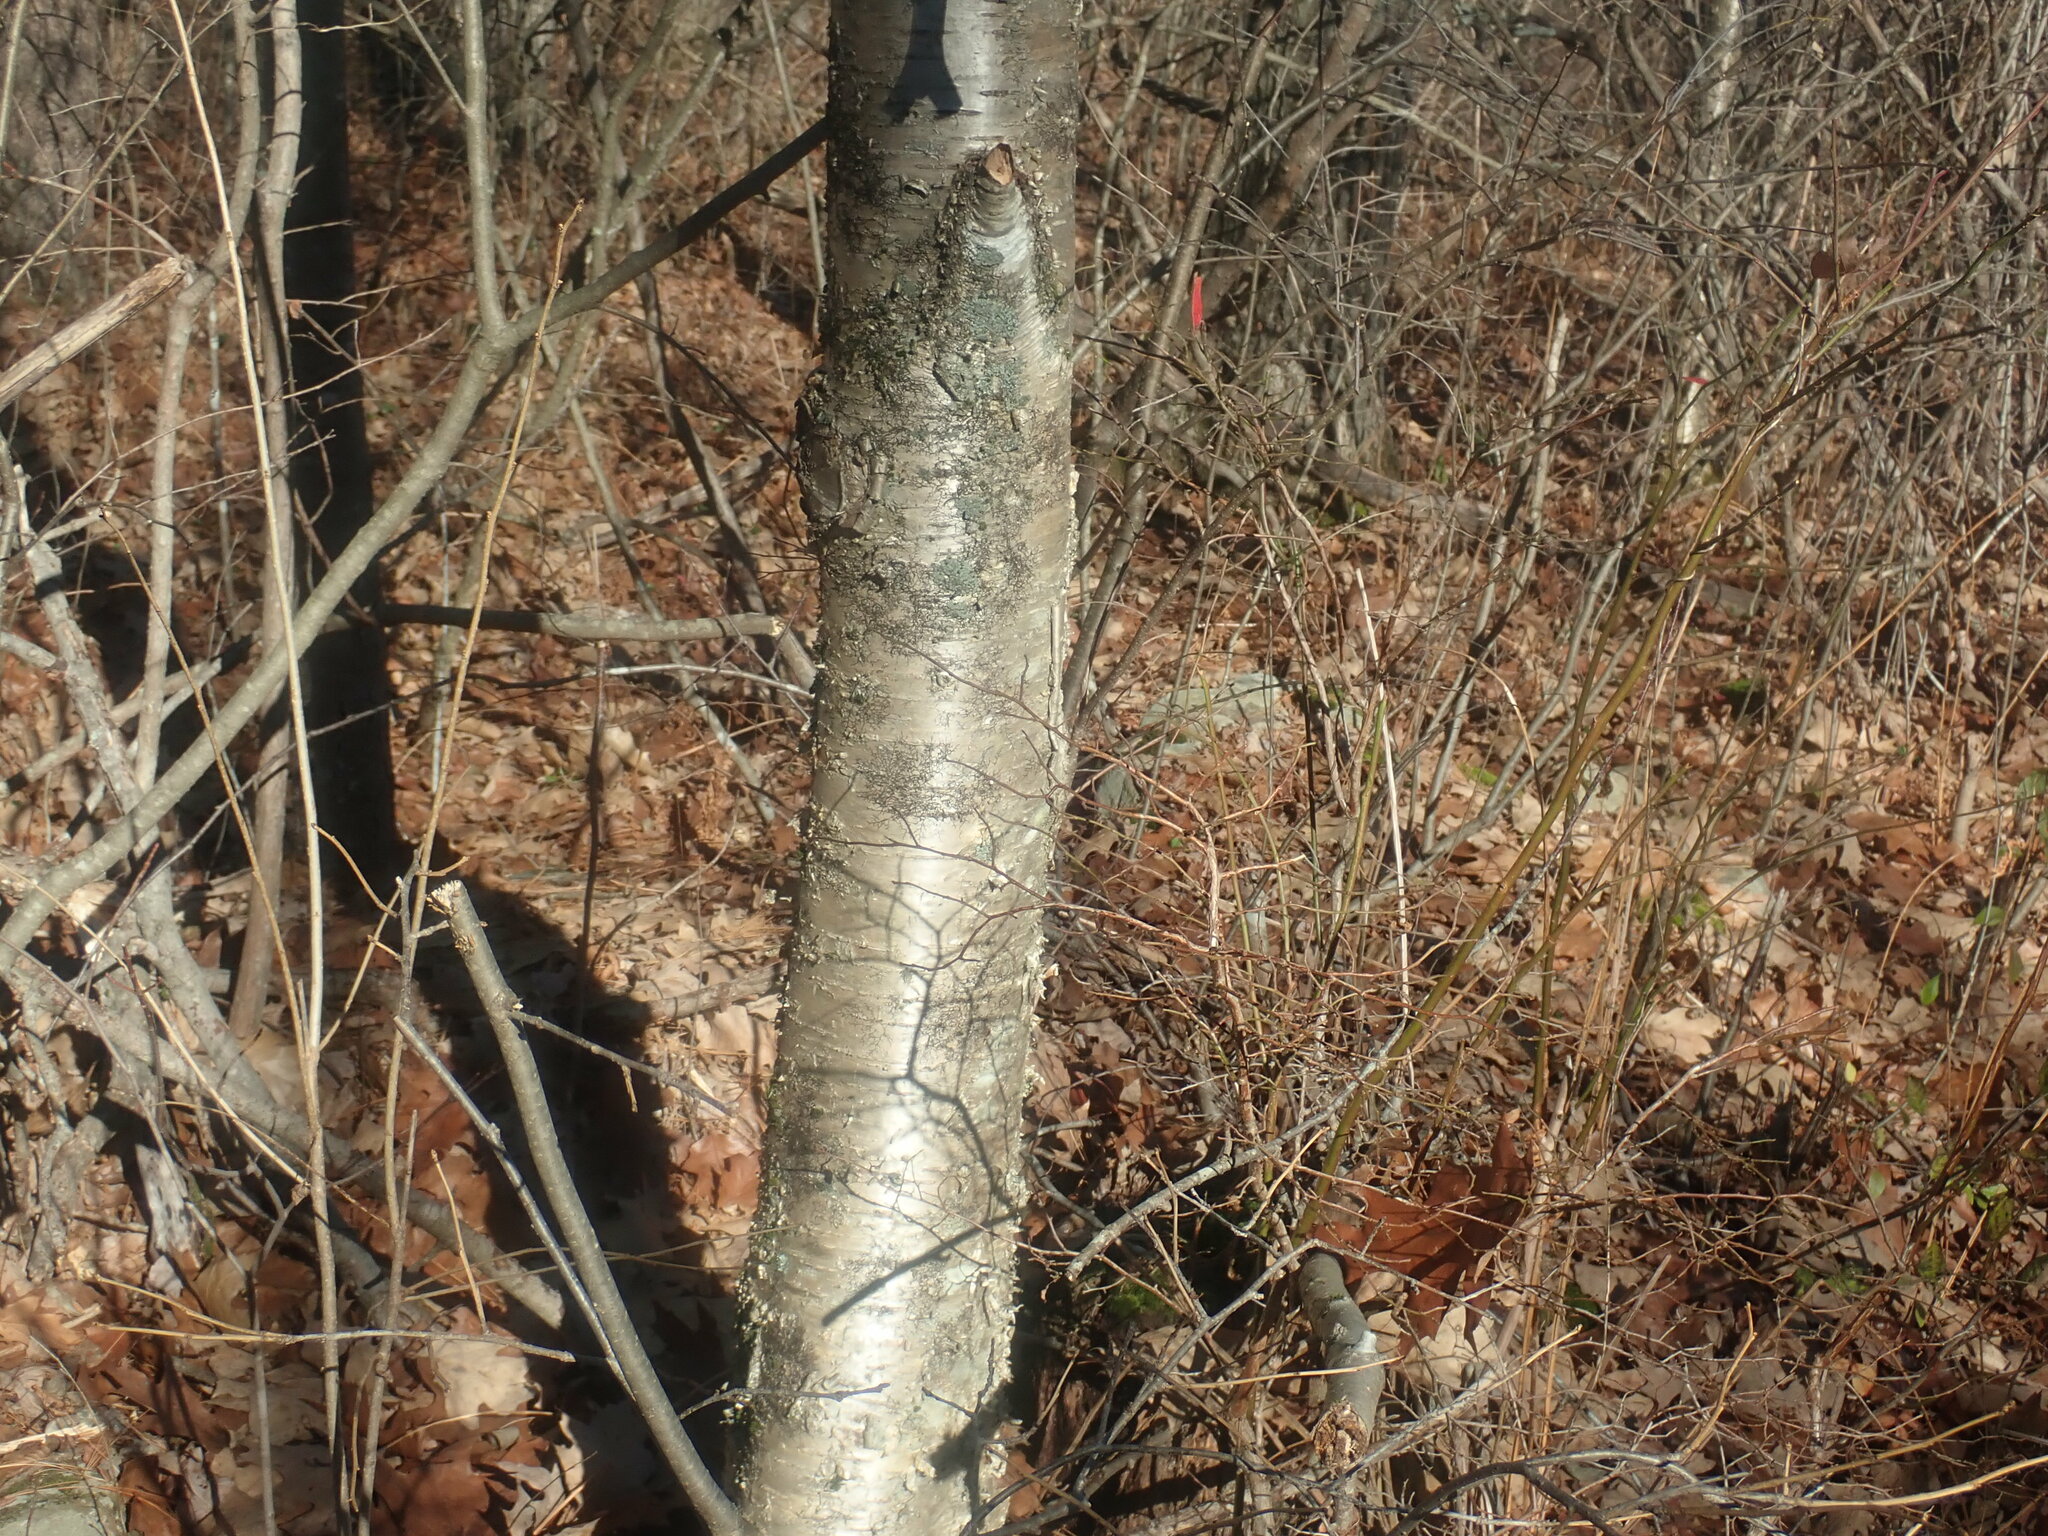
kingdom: Plantae
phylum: Tracheophyta
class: Magnoliopsida
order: Fagales
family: Betulaceae
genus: Betula
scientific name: Betula alleghaniensis
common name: Yellow birch
